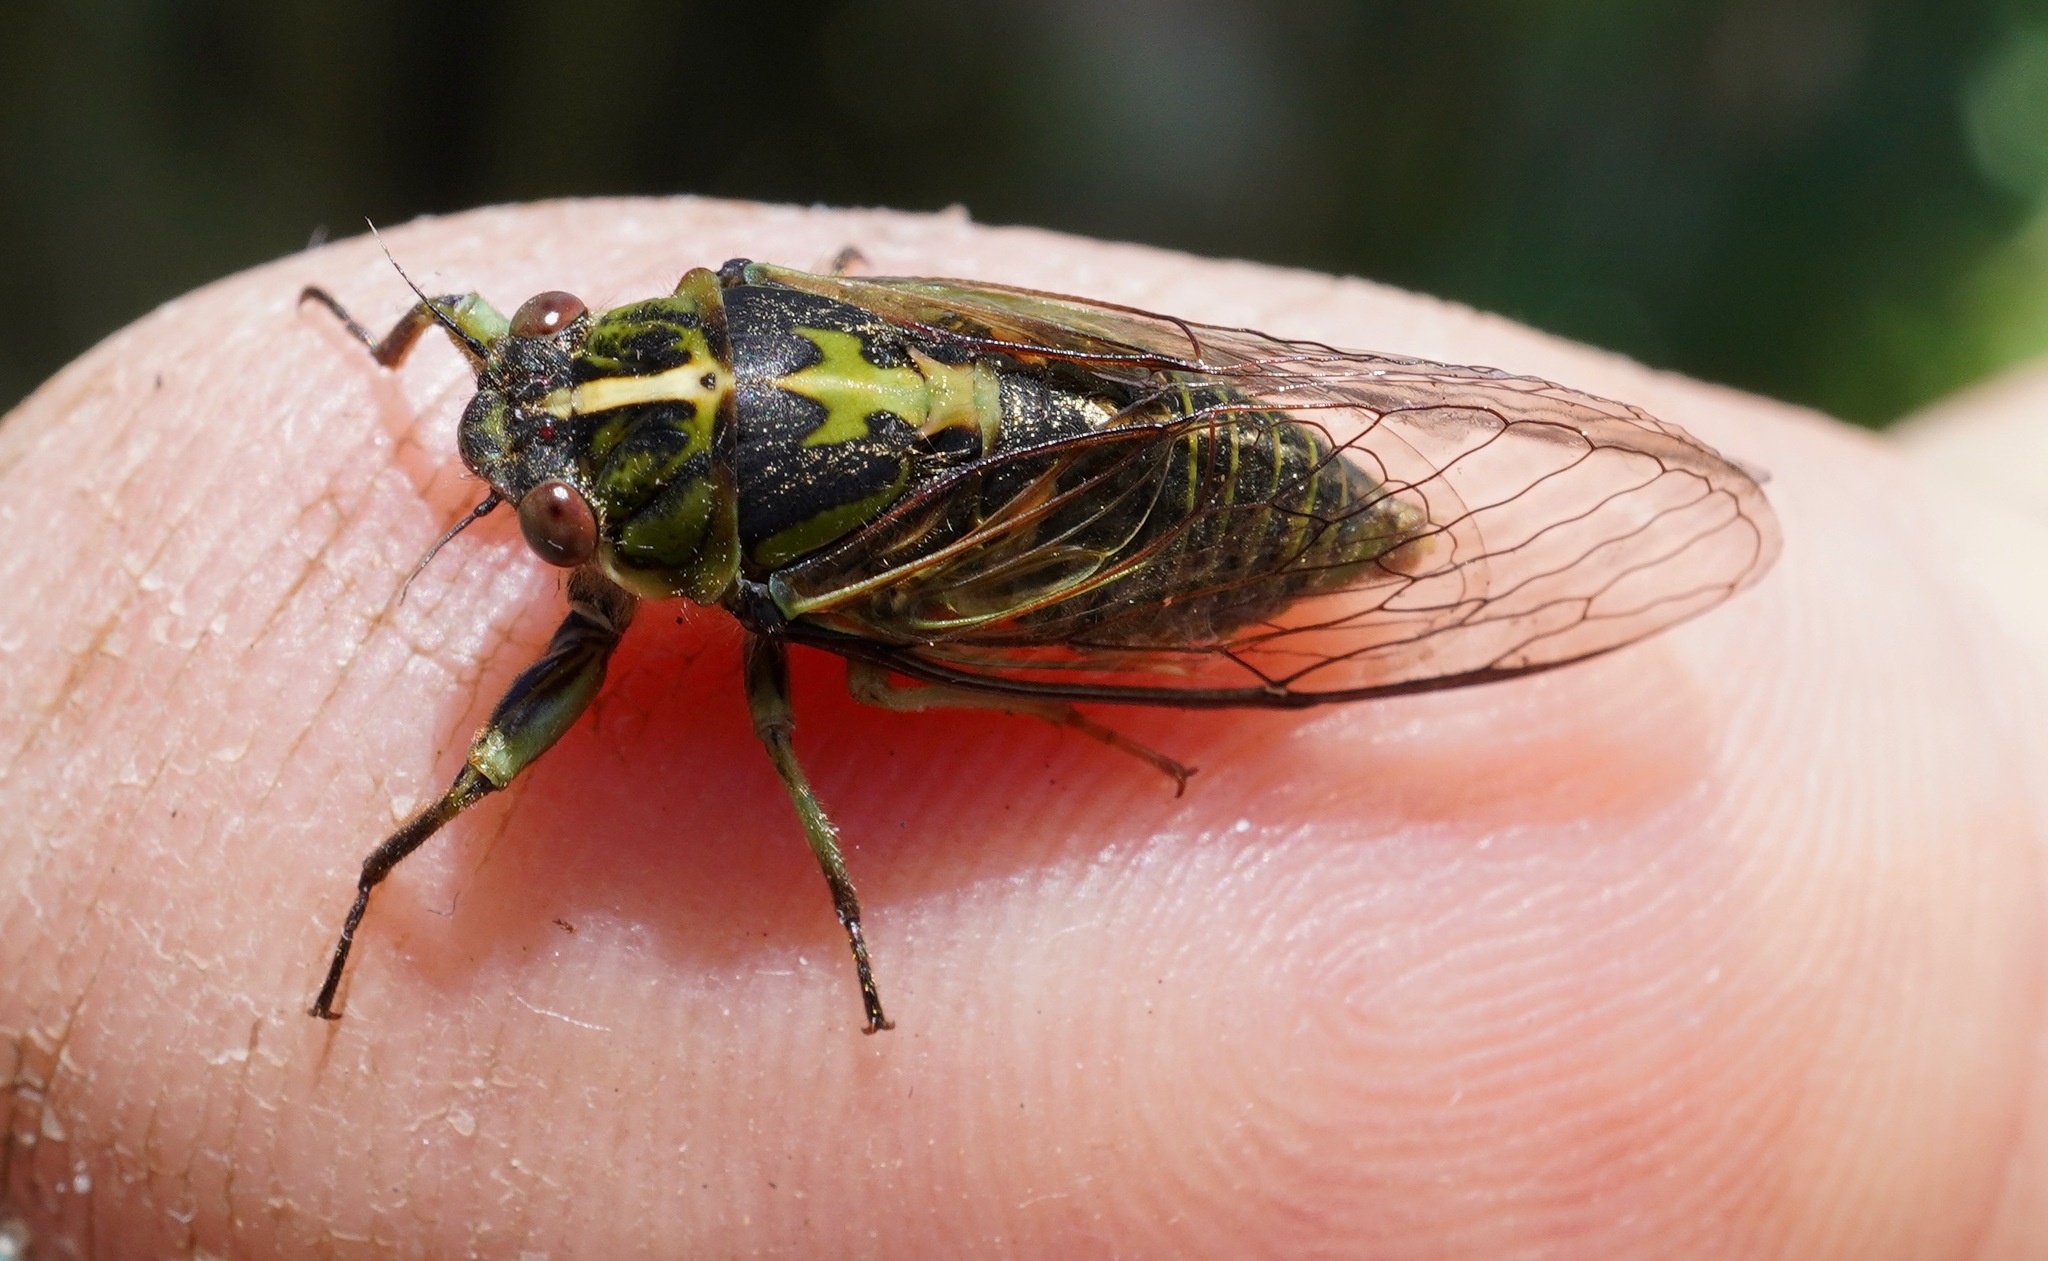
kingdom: Animalia
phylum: Arthropoda
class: Insecta
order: Hemiptera
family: Cicadidae
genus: Kikihia
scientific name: Kikihia muta
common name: Variable cicada
